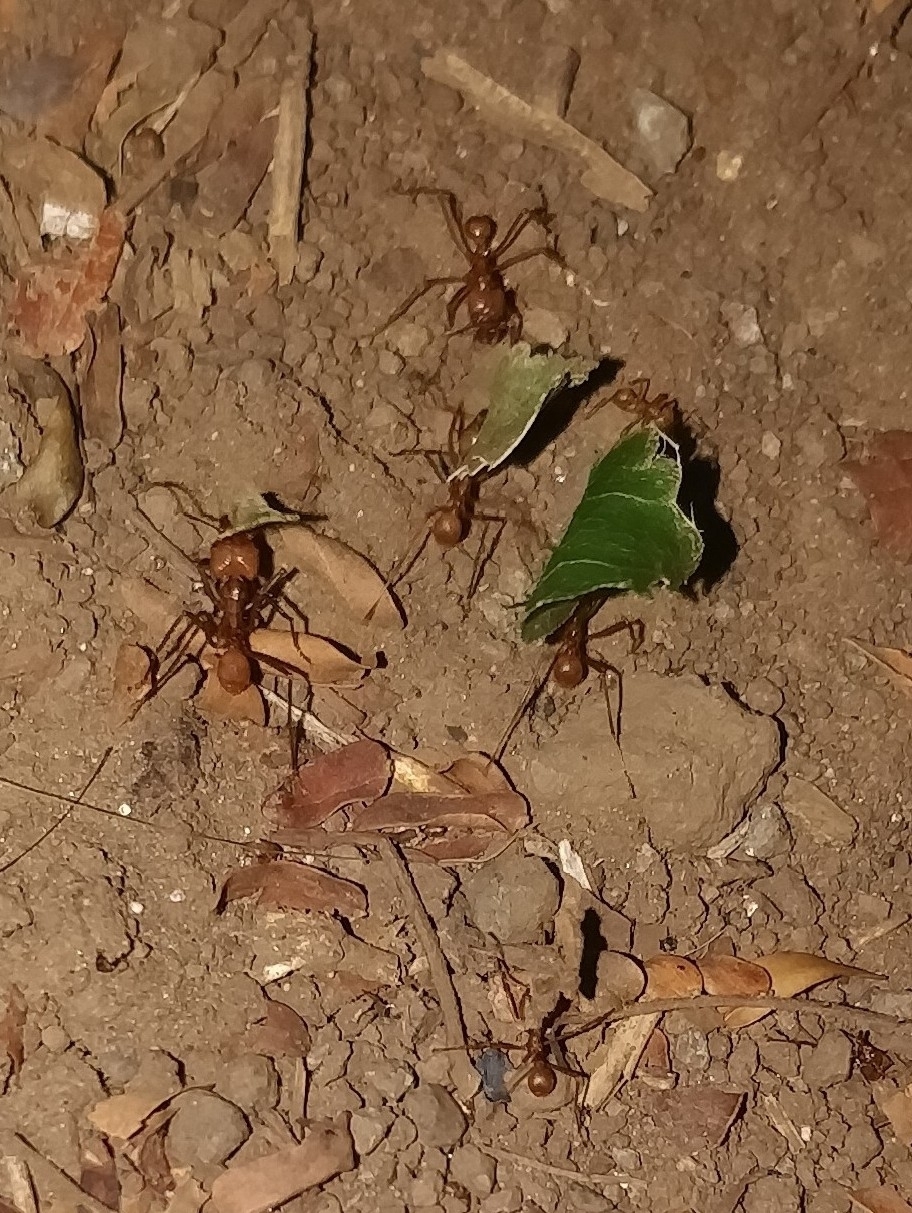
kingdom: Animalia
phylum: Arthropoda
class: Insecta
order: Hymenoptera
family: Formicidae
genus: Atta
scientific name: Atta cephalotes
